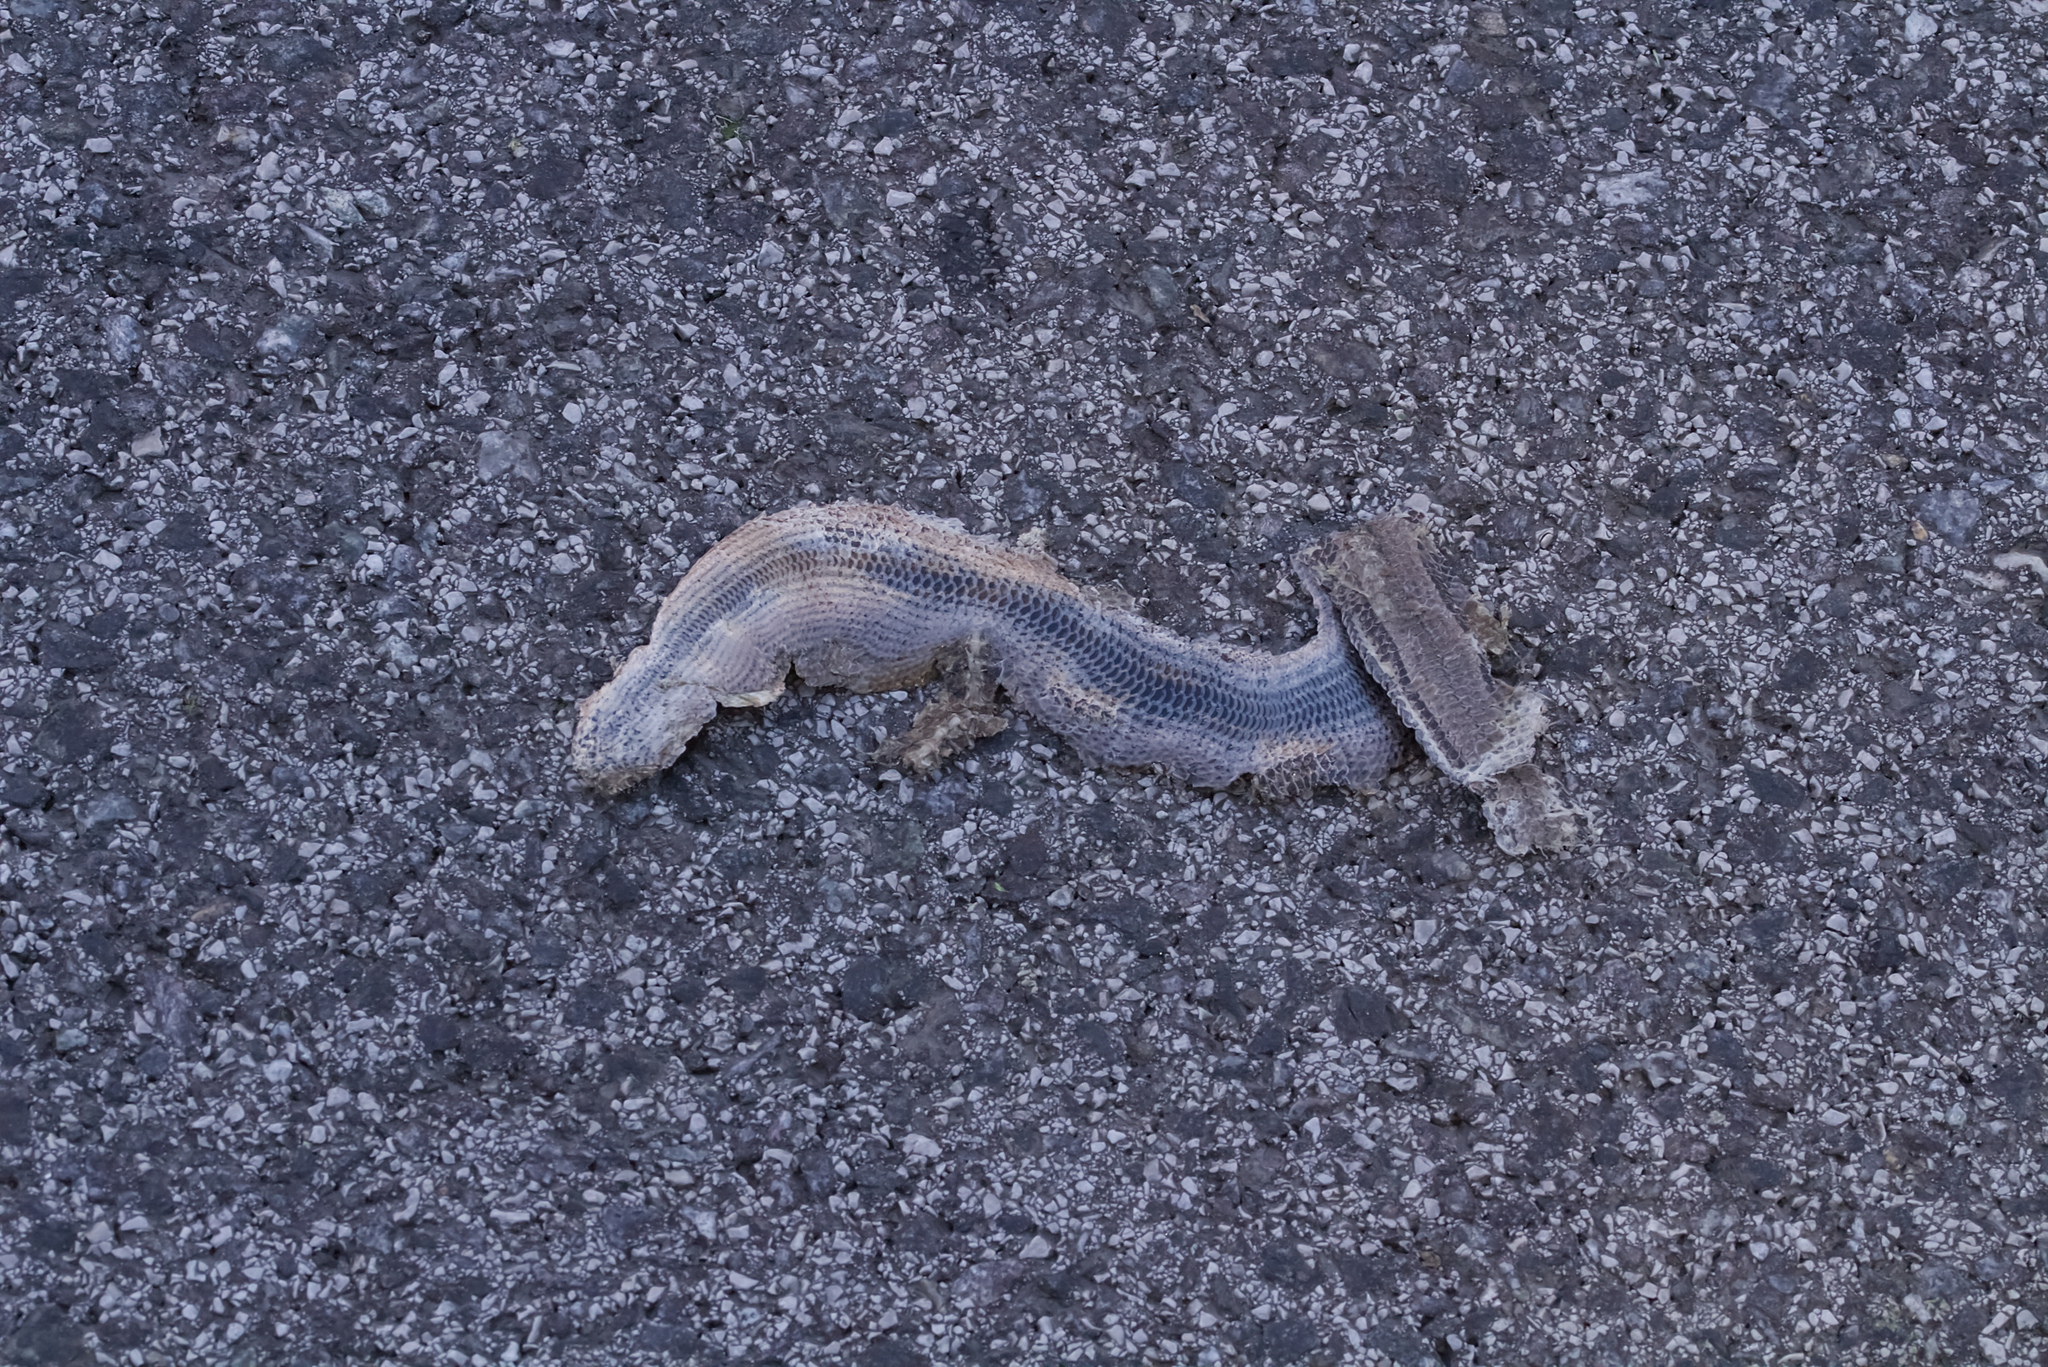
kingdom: Animalia
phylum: Chordata
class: Squamata
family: Anguidae
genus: Anguis
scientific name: Anguis fragilis
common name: Slow worm
